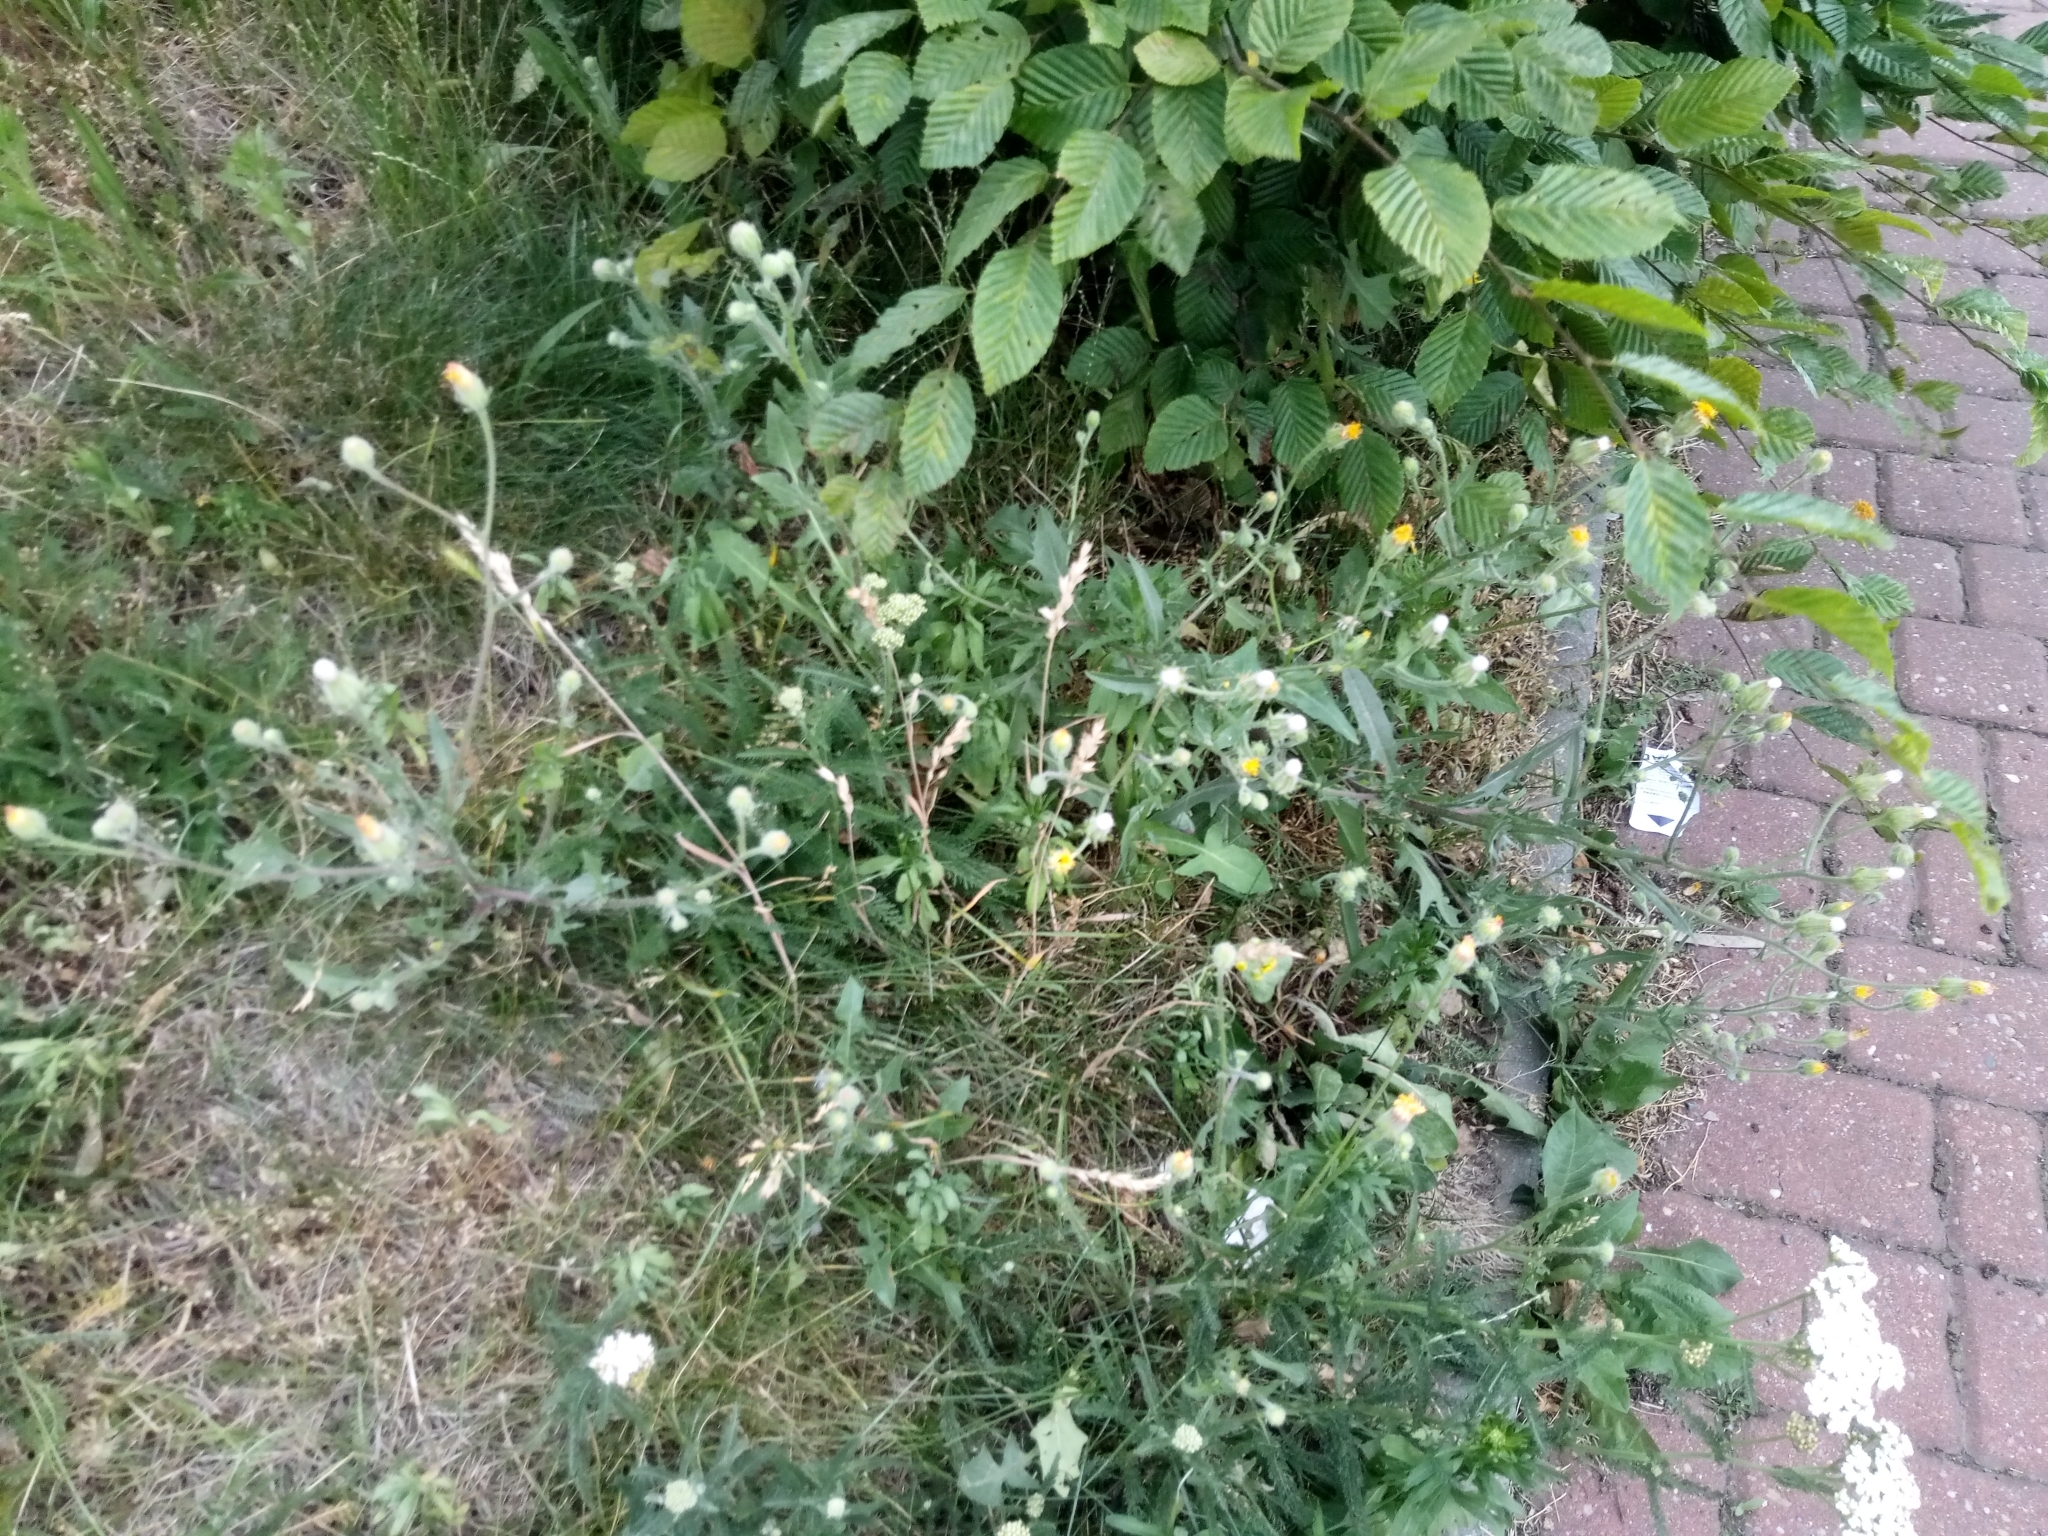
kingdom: Plantae
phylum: Tracheophyta
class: Magnoliopsida
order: Asterales
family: Asteraceae
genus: Crepis
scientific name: Crepis foetida
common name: Stinking hawk's-beard
